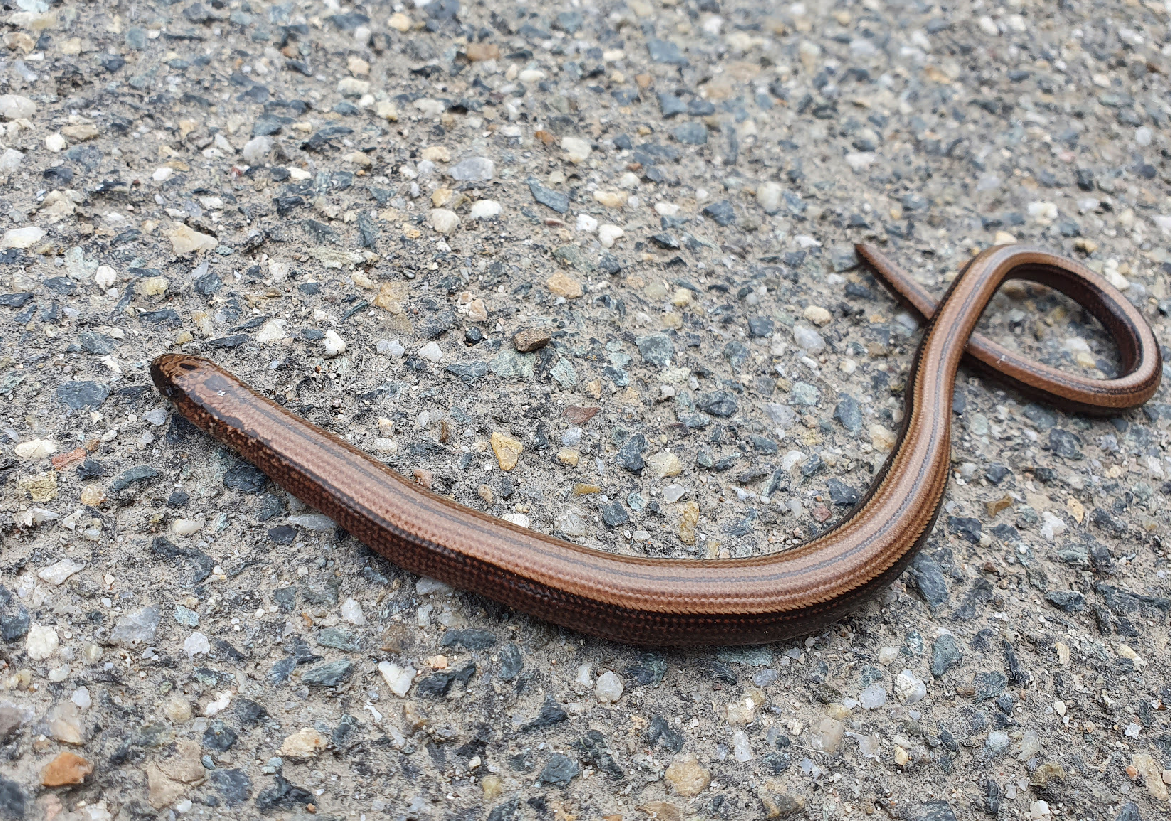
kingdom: Animalia
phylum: Chordata
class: Squamata
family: Anguidae
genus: Anguis
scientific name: Anguis fragilis
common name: Slow worm
